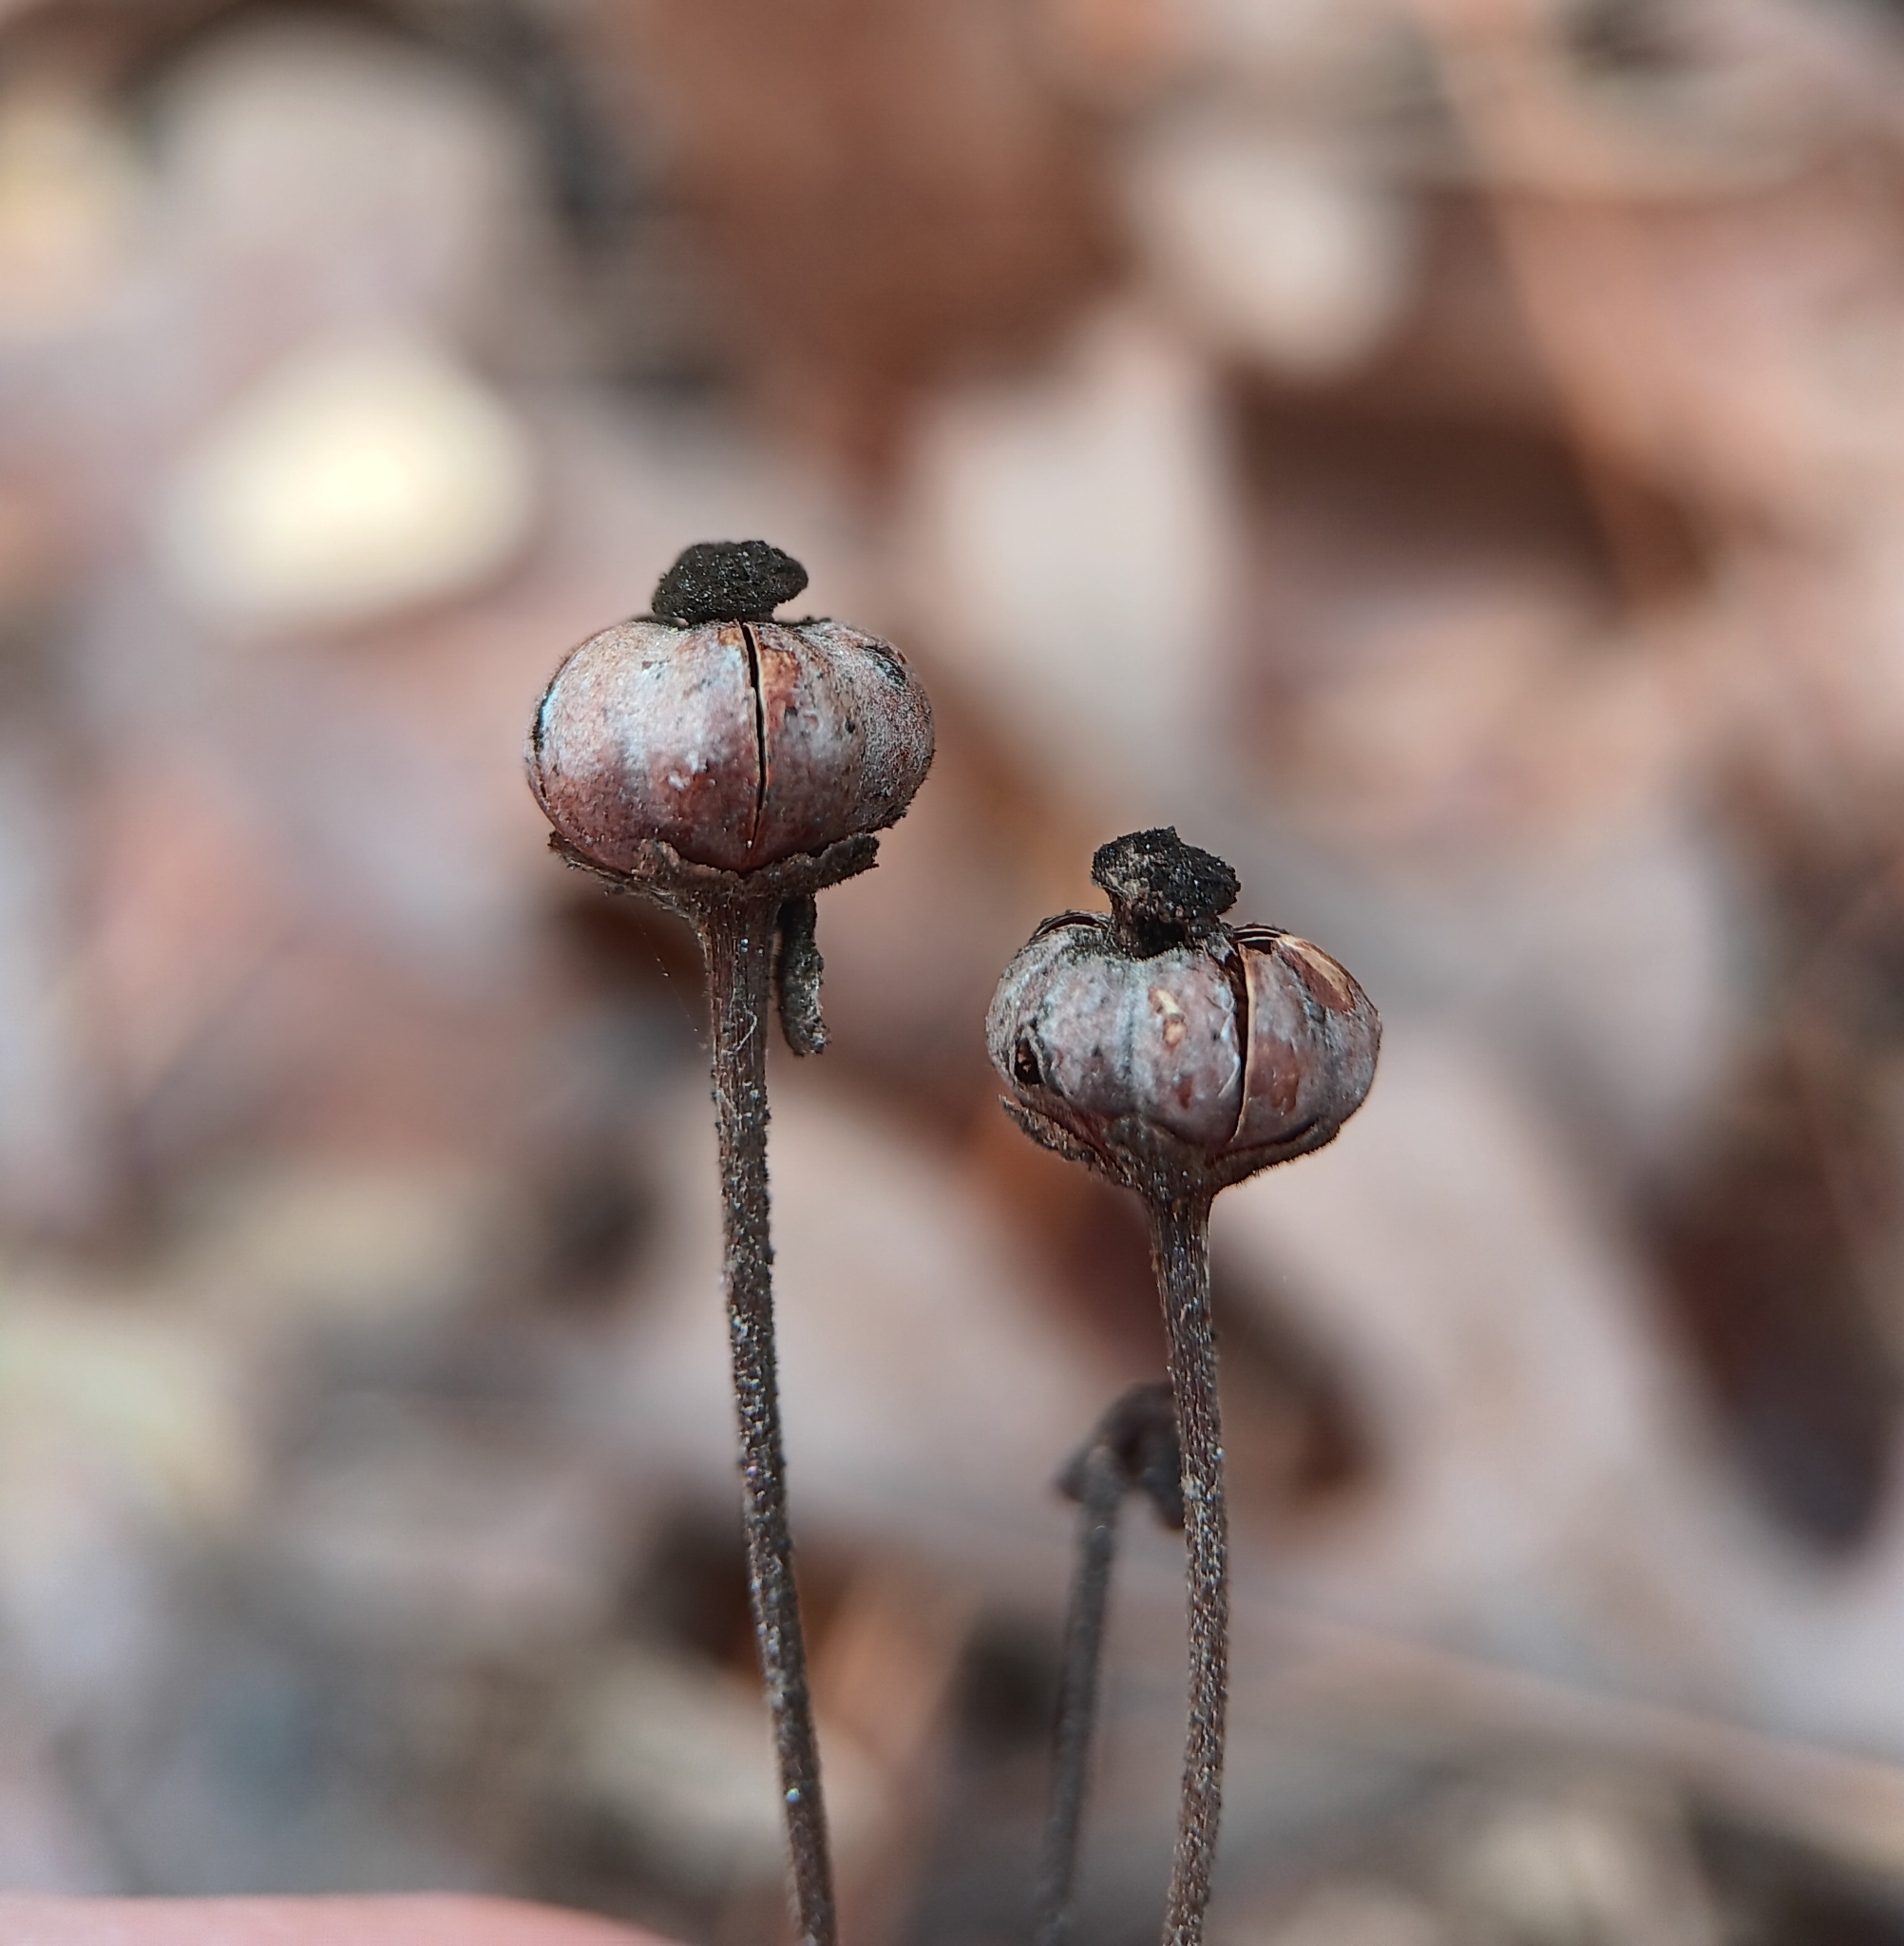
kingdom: Plantae
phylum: Tracheophyta
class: Magnoliopsida
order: Ericales
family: Ericaceae
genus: Chimaphila
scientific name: Chimaphila maculata
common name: Spotted pipsissewa
